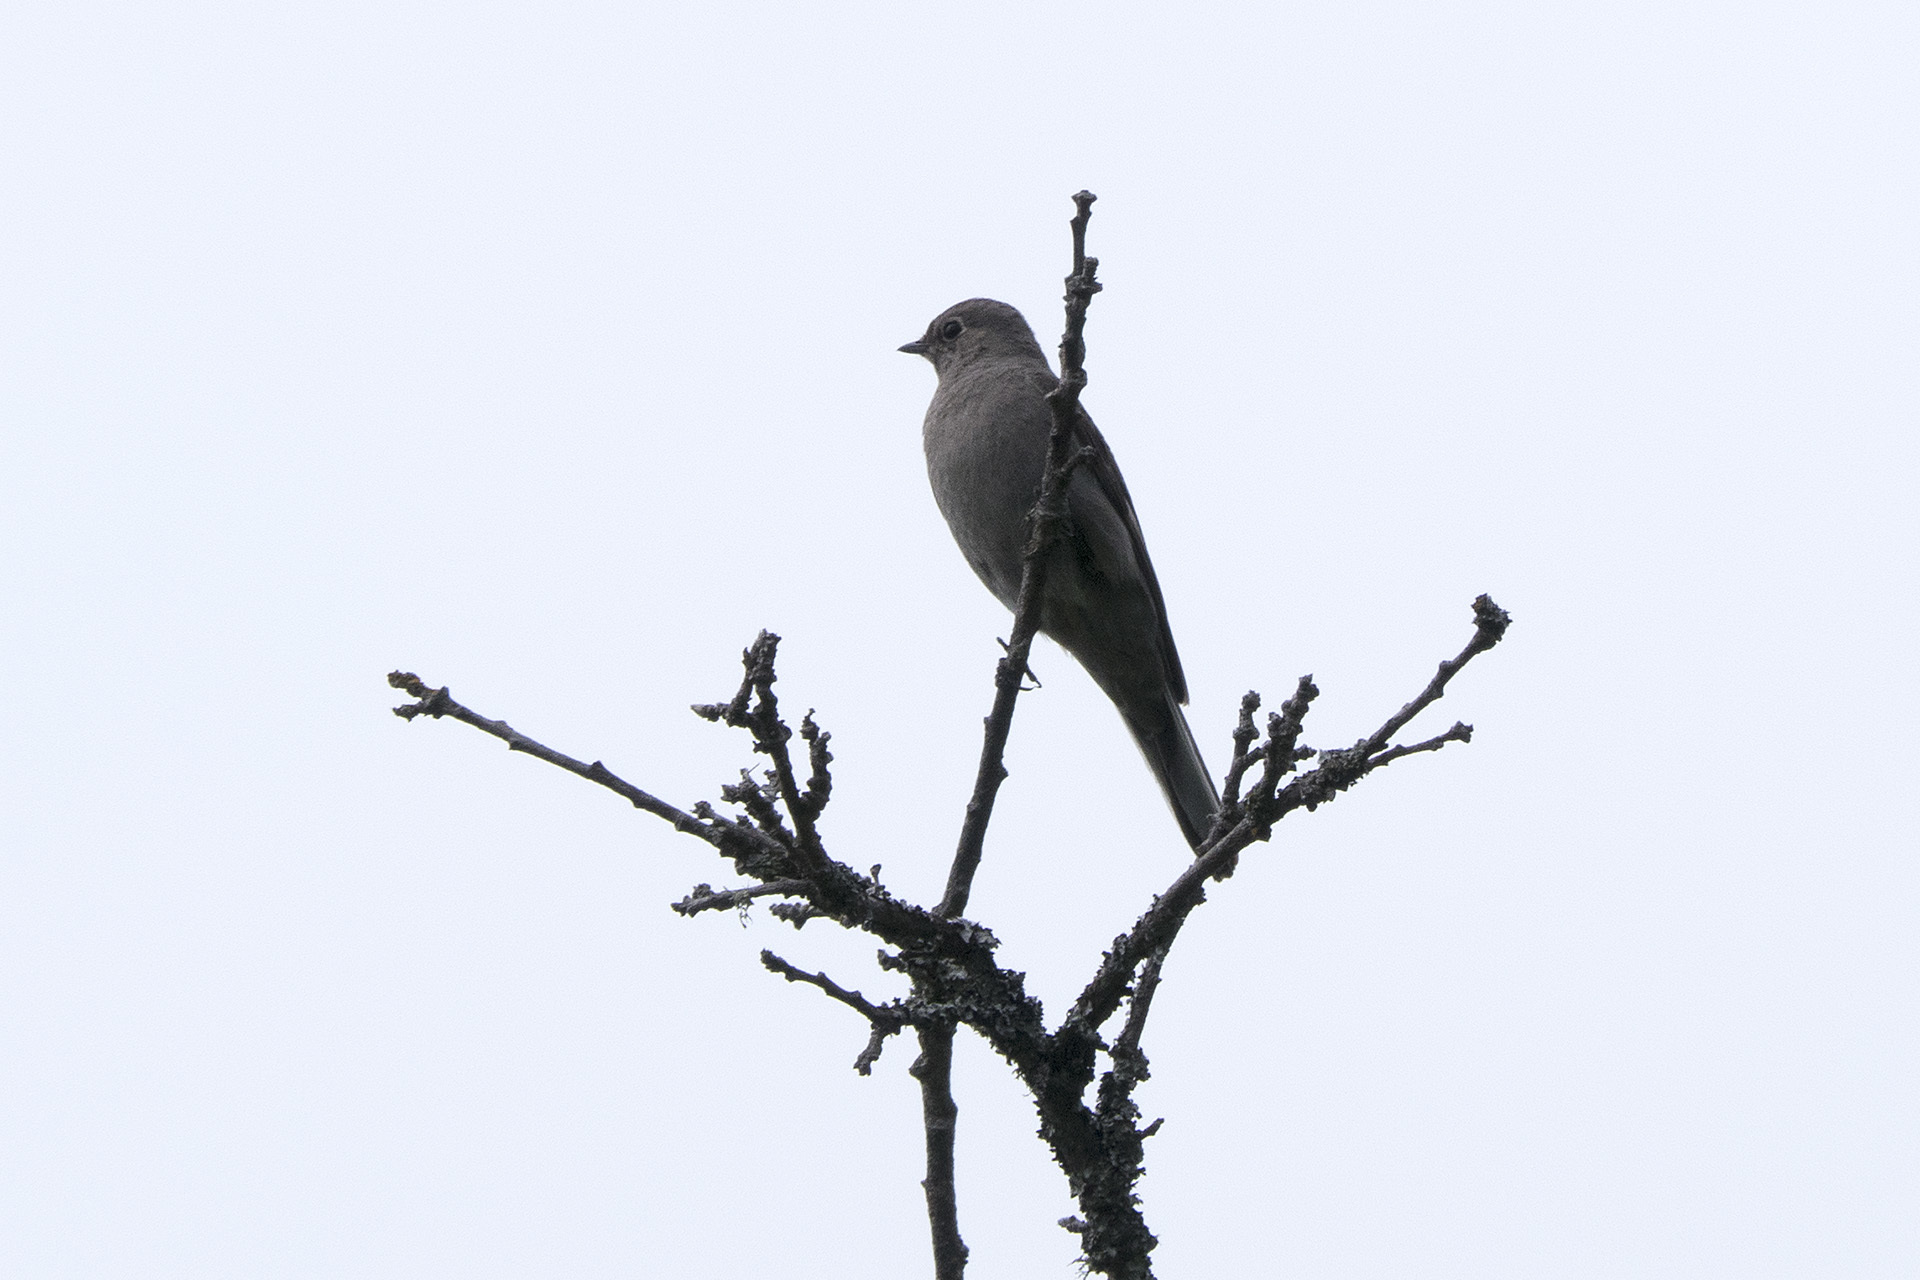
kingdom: Animalia
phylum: Chordata
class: Aves
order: Passeriformes
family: Turdidae
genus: Myadestes
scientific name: Myadestes townsendi
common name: Townsend's solitaire
